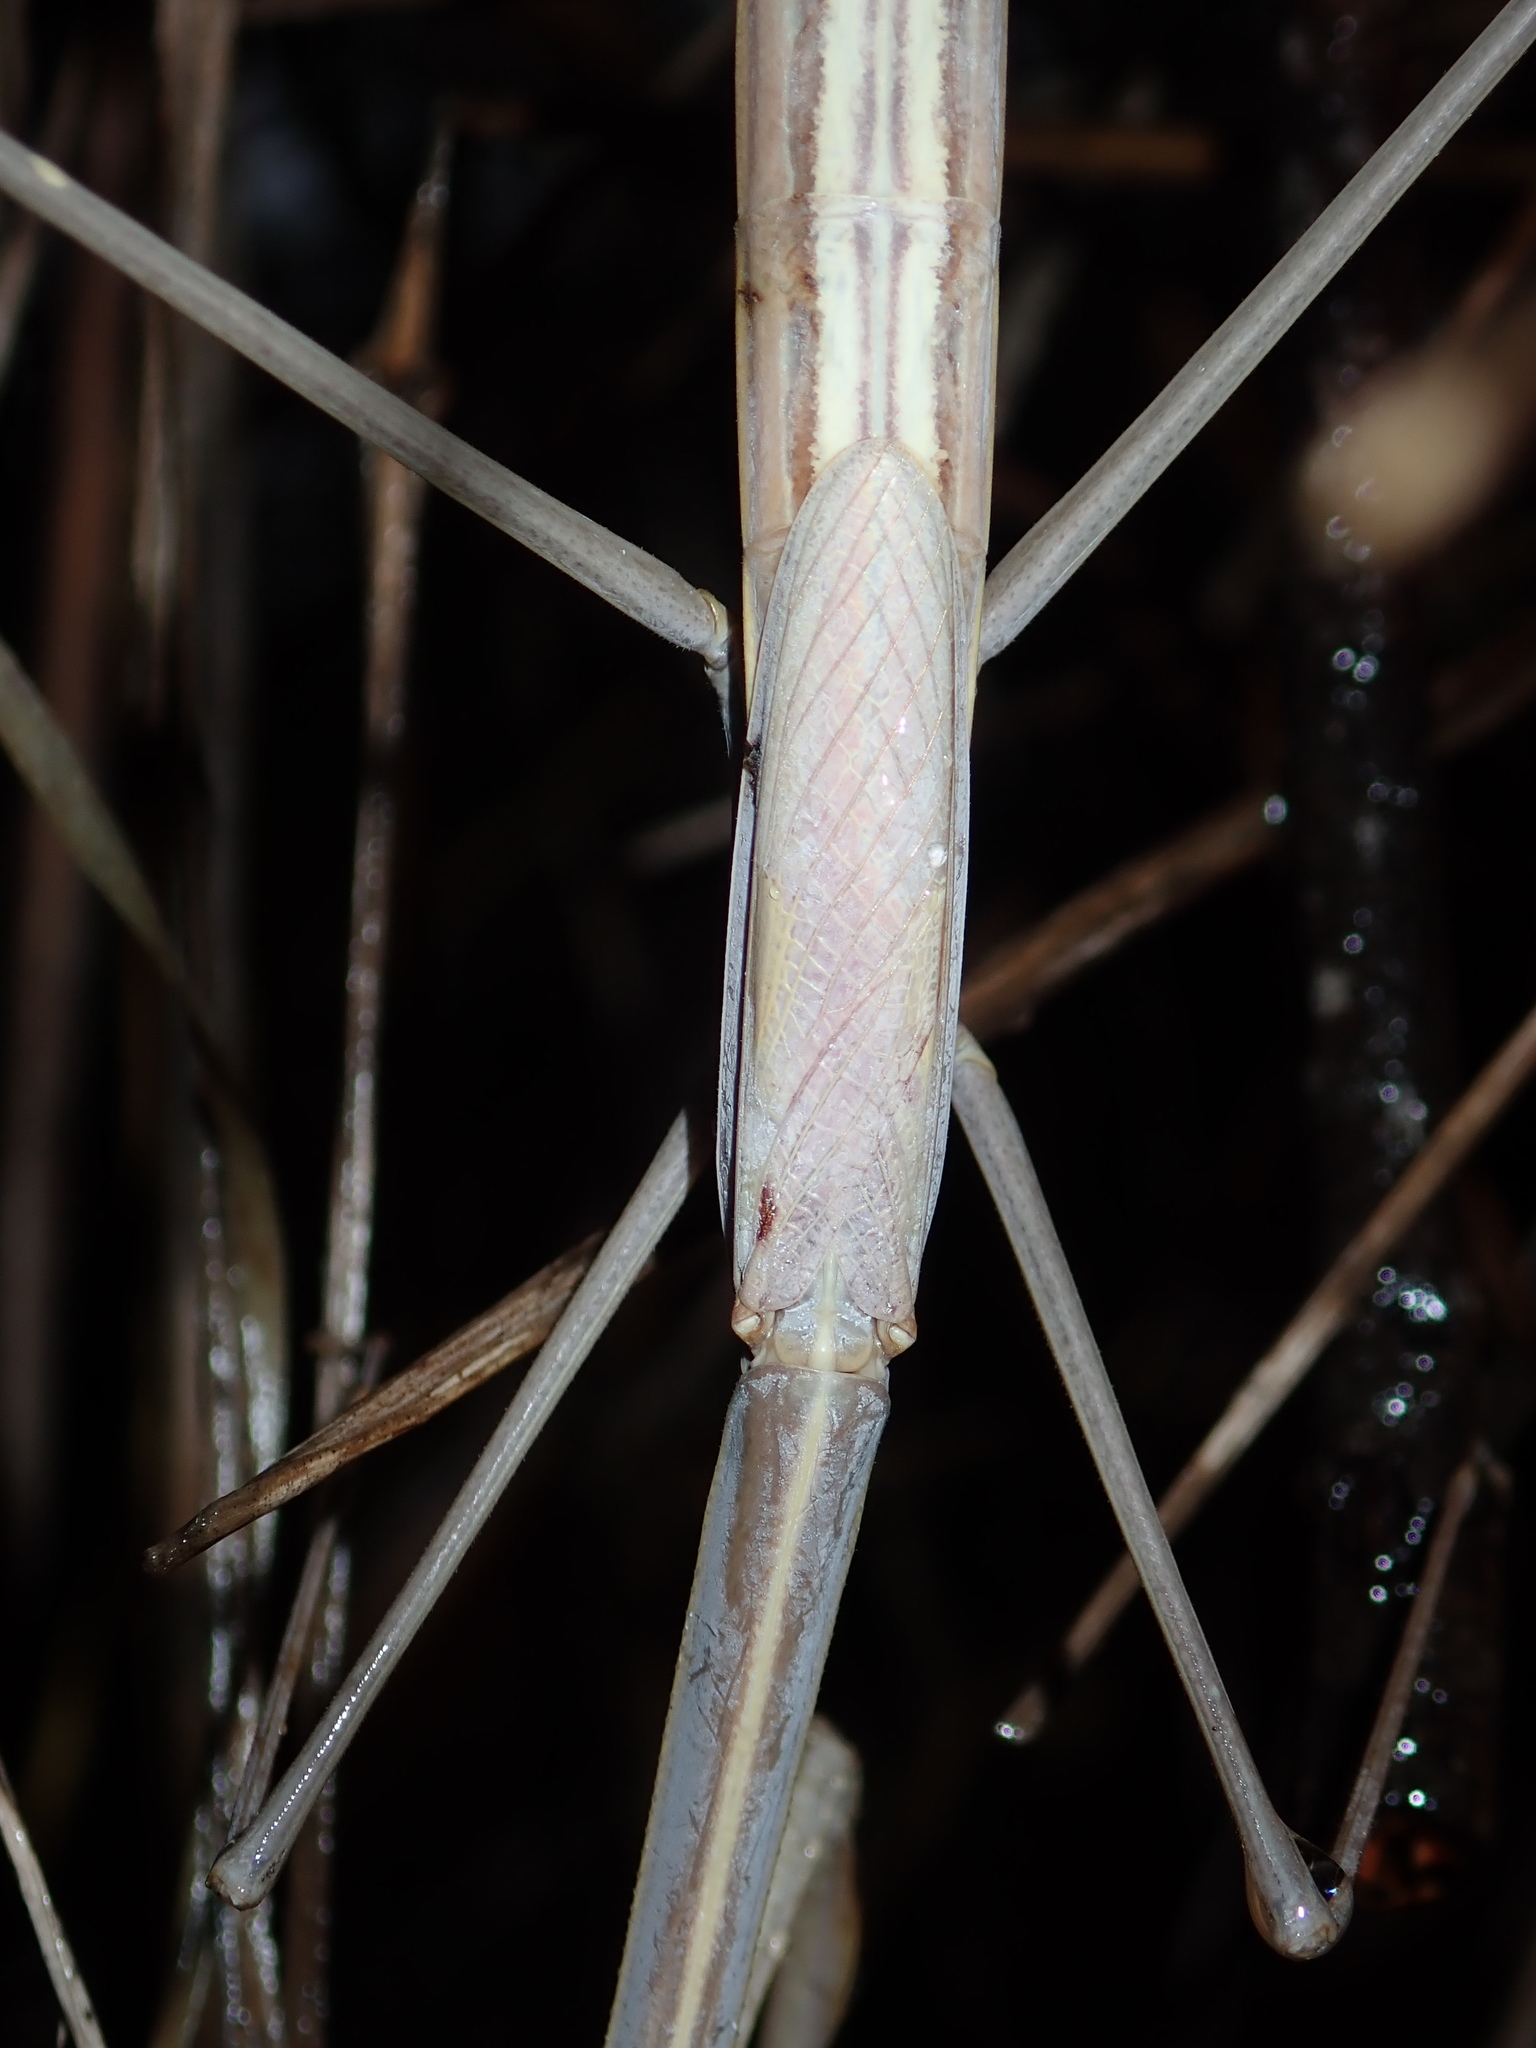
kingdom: Animalia
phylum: Arthropoda
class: Insecta
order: Mantodea
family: Mantidae
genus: Archimantis
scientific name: Archimantis brunneriana
